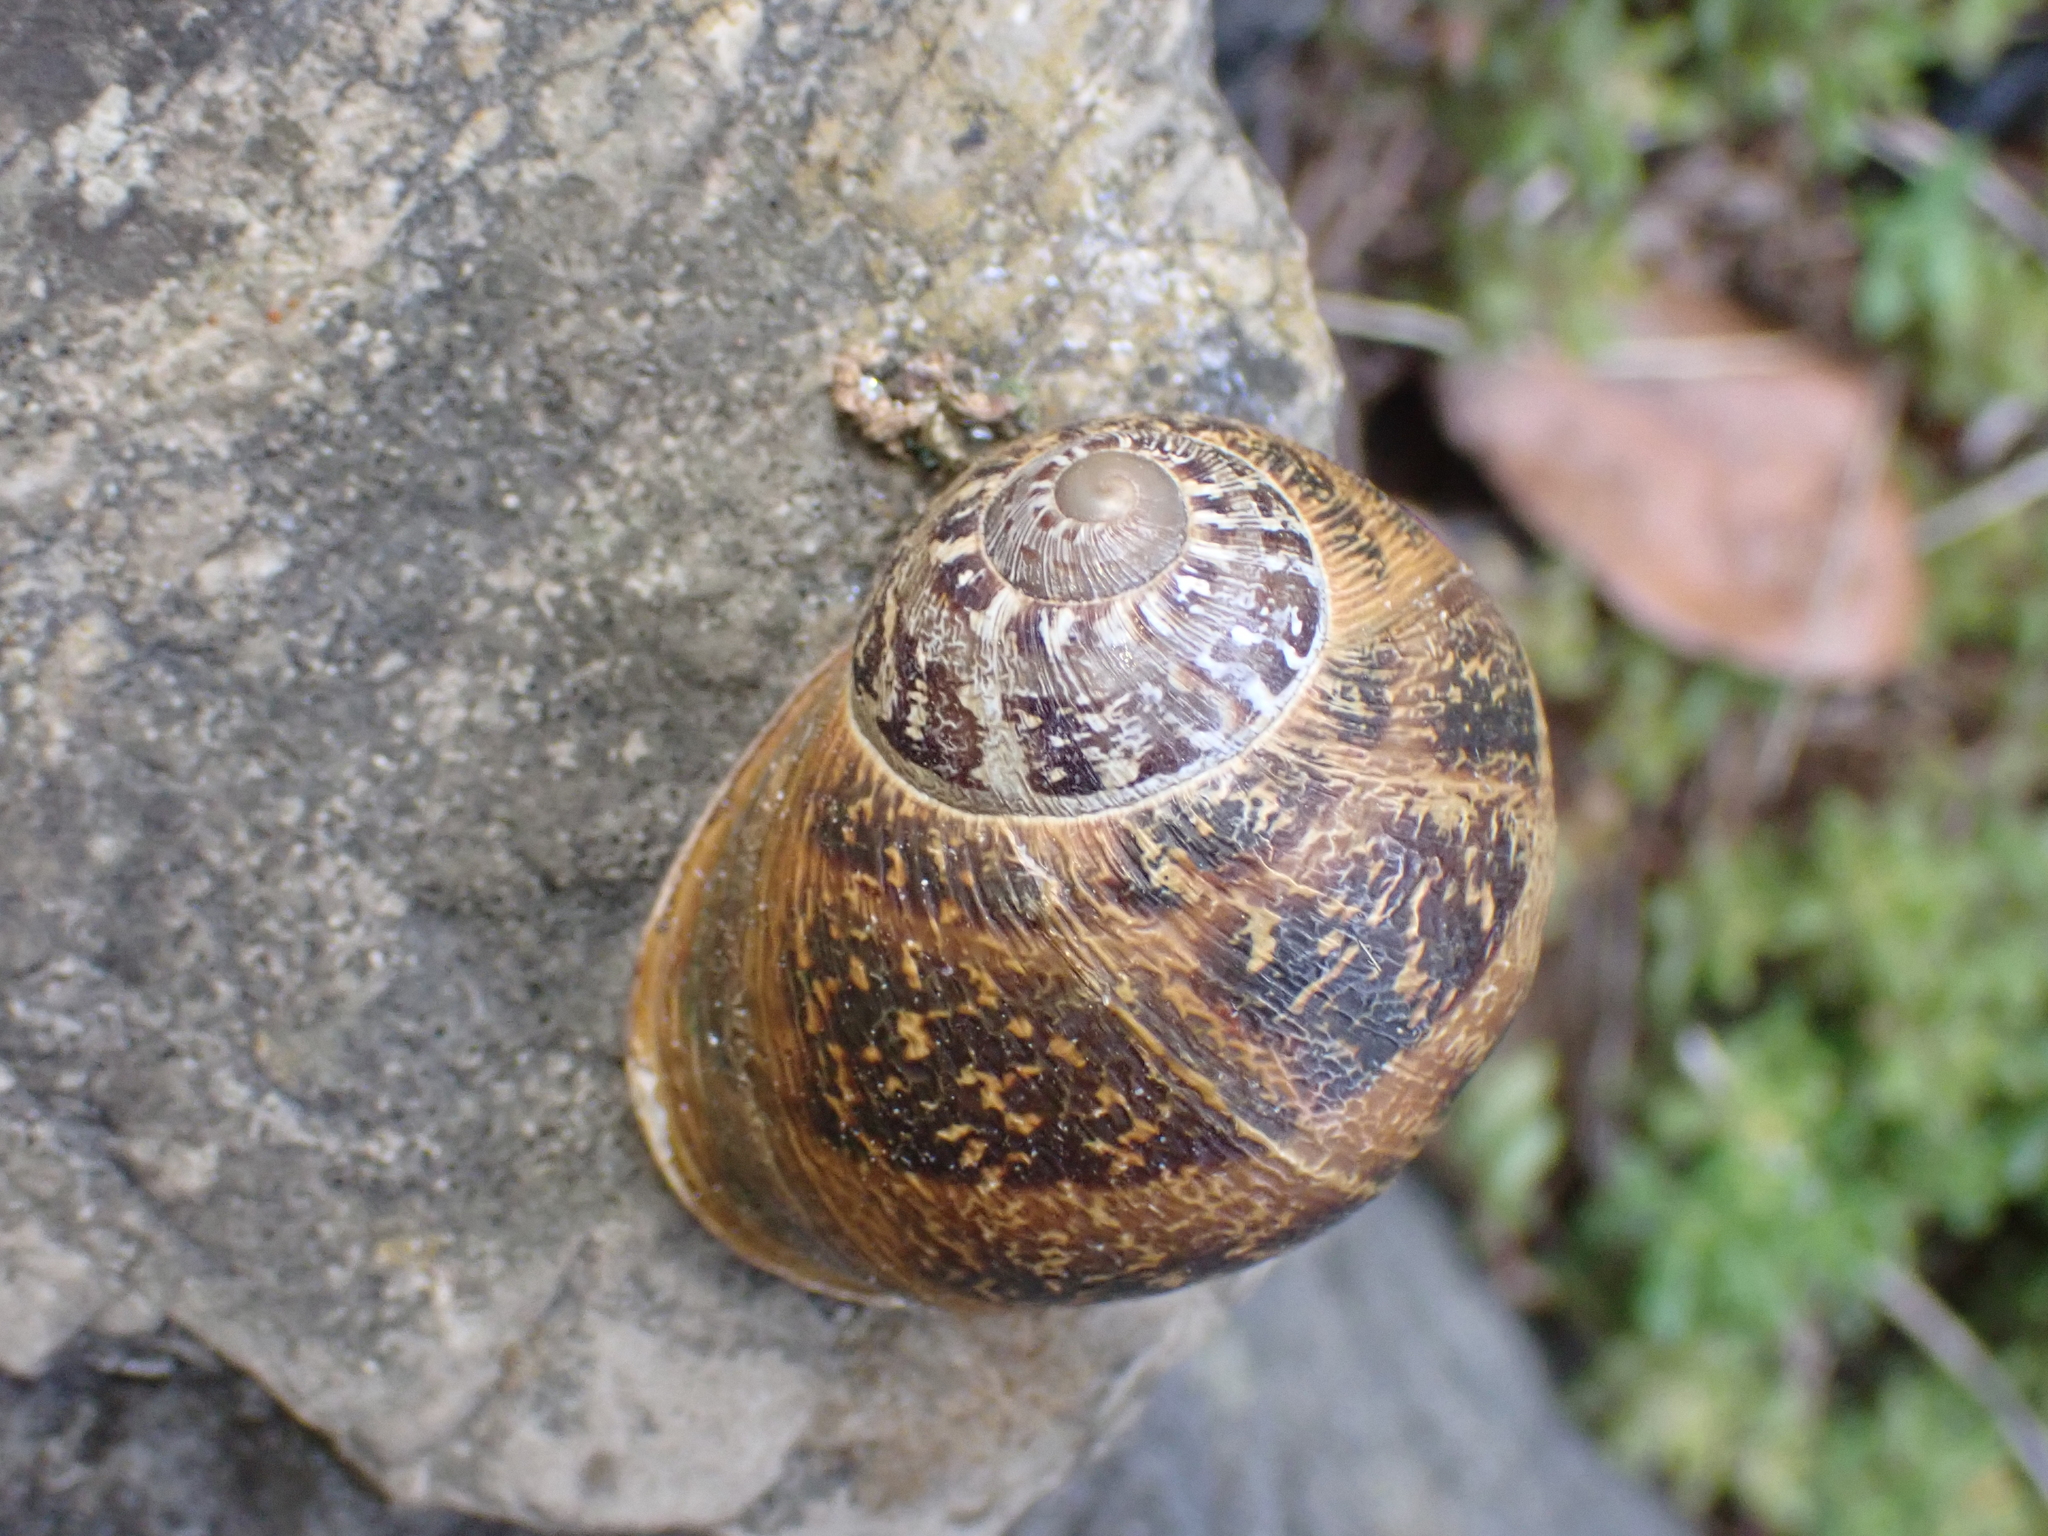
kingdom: Animalia
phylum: Mollusca
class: Gastropoda
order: Stylommatophora
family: Helicidae
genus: Cornu
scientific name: Cornu aspersum
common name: Brown garden snail
